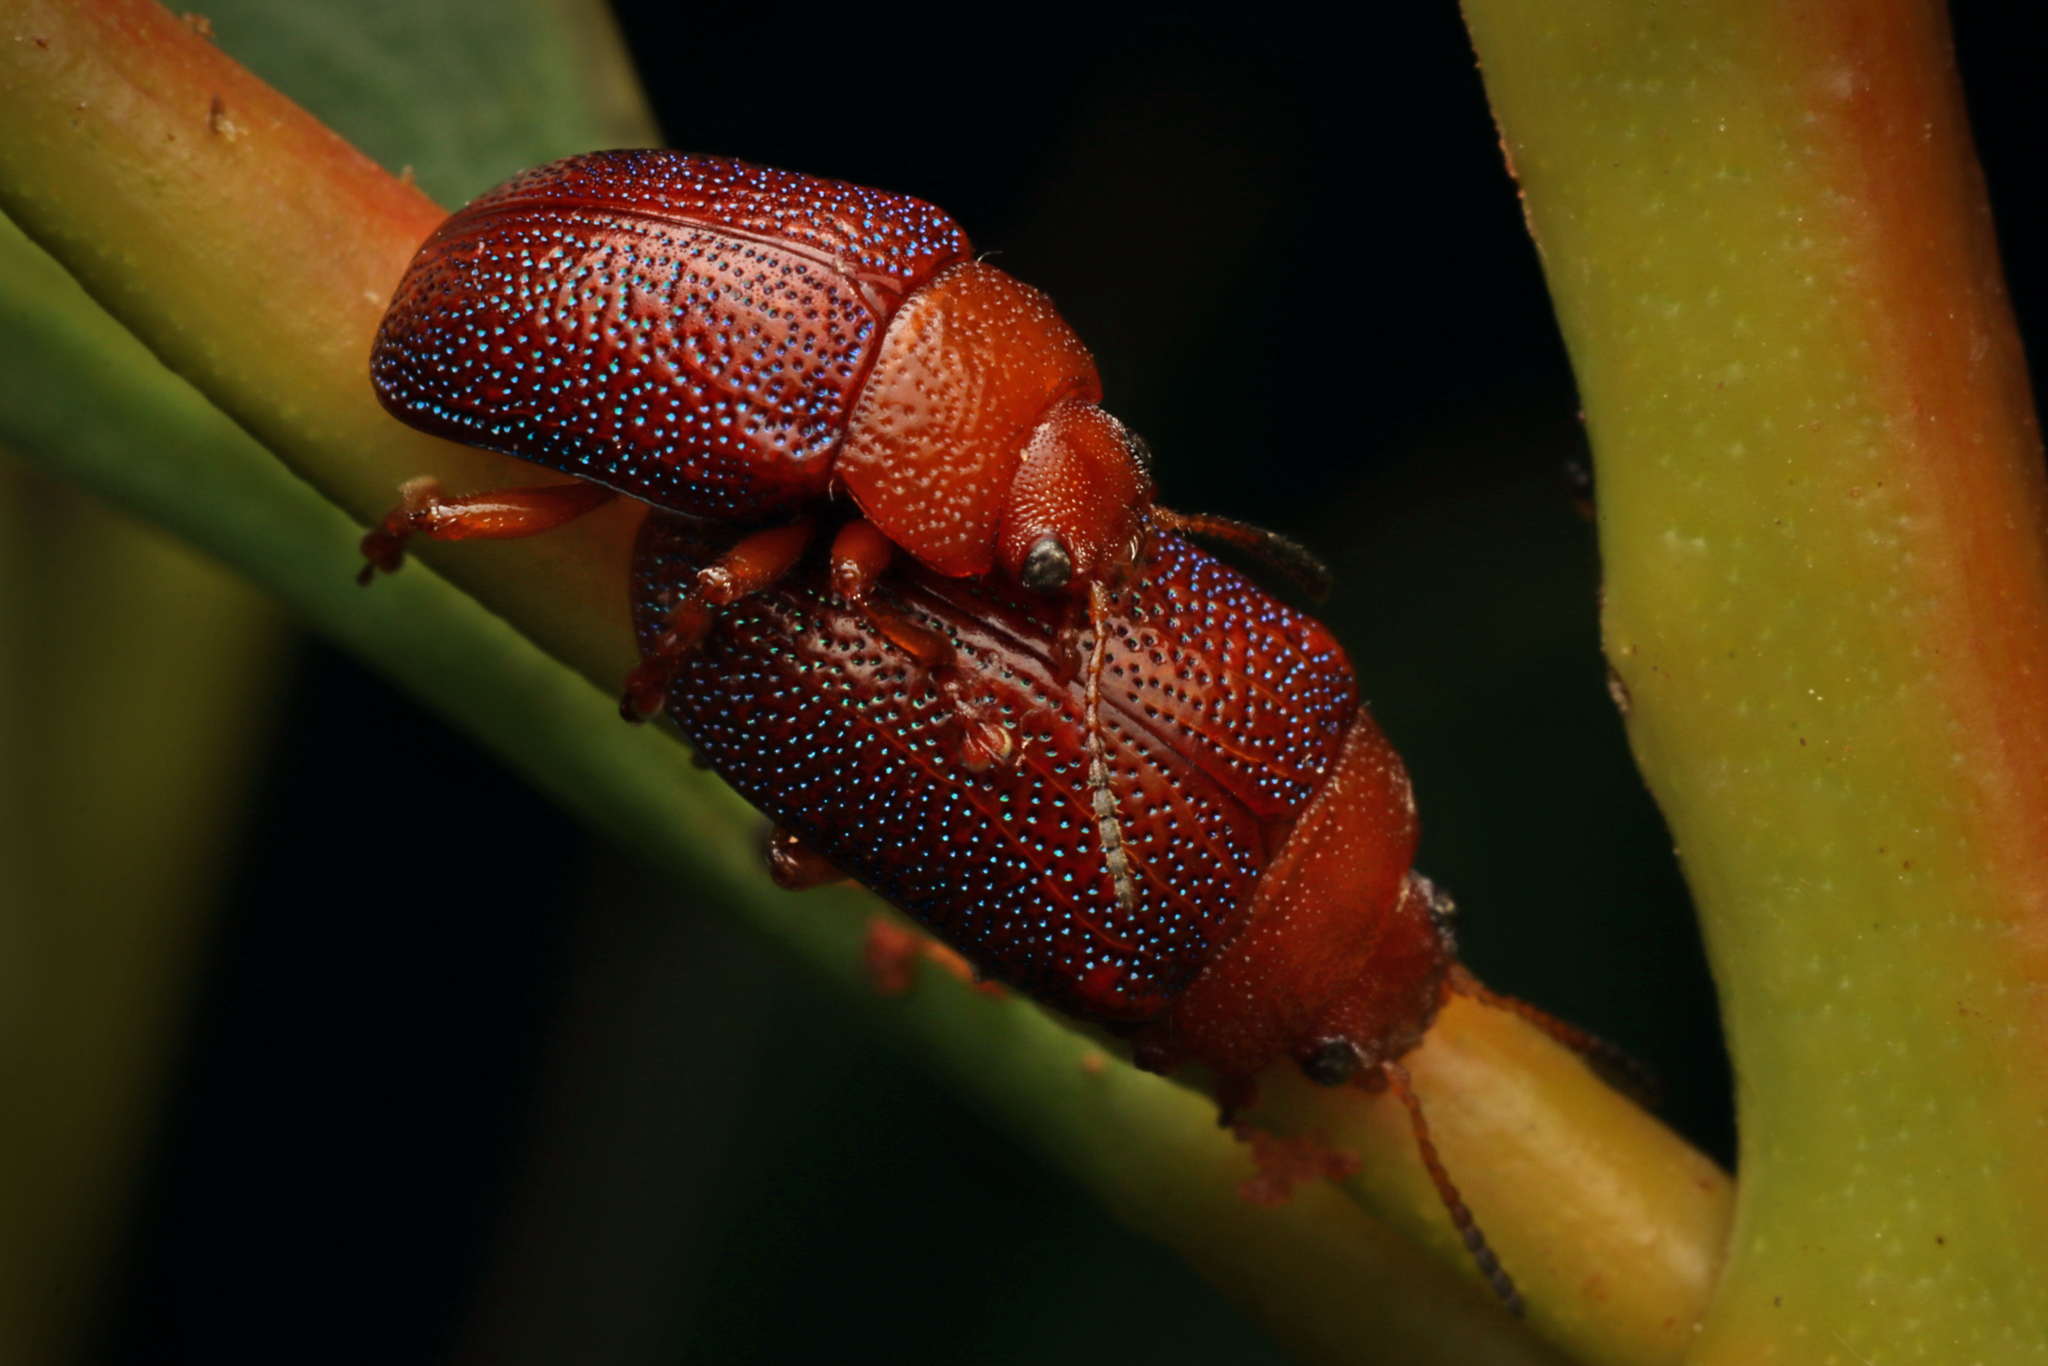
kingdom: Animalia
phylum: Arthropoda
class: Insecta
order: Coleoptera
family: Chrysomelidae
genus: Calomela
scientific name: Calomela
